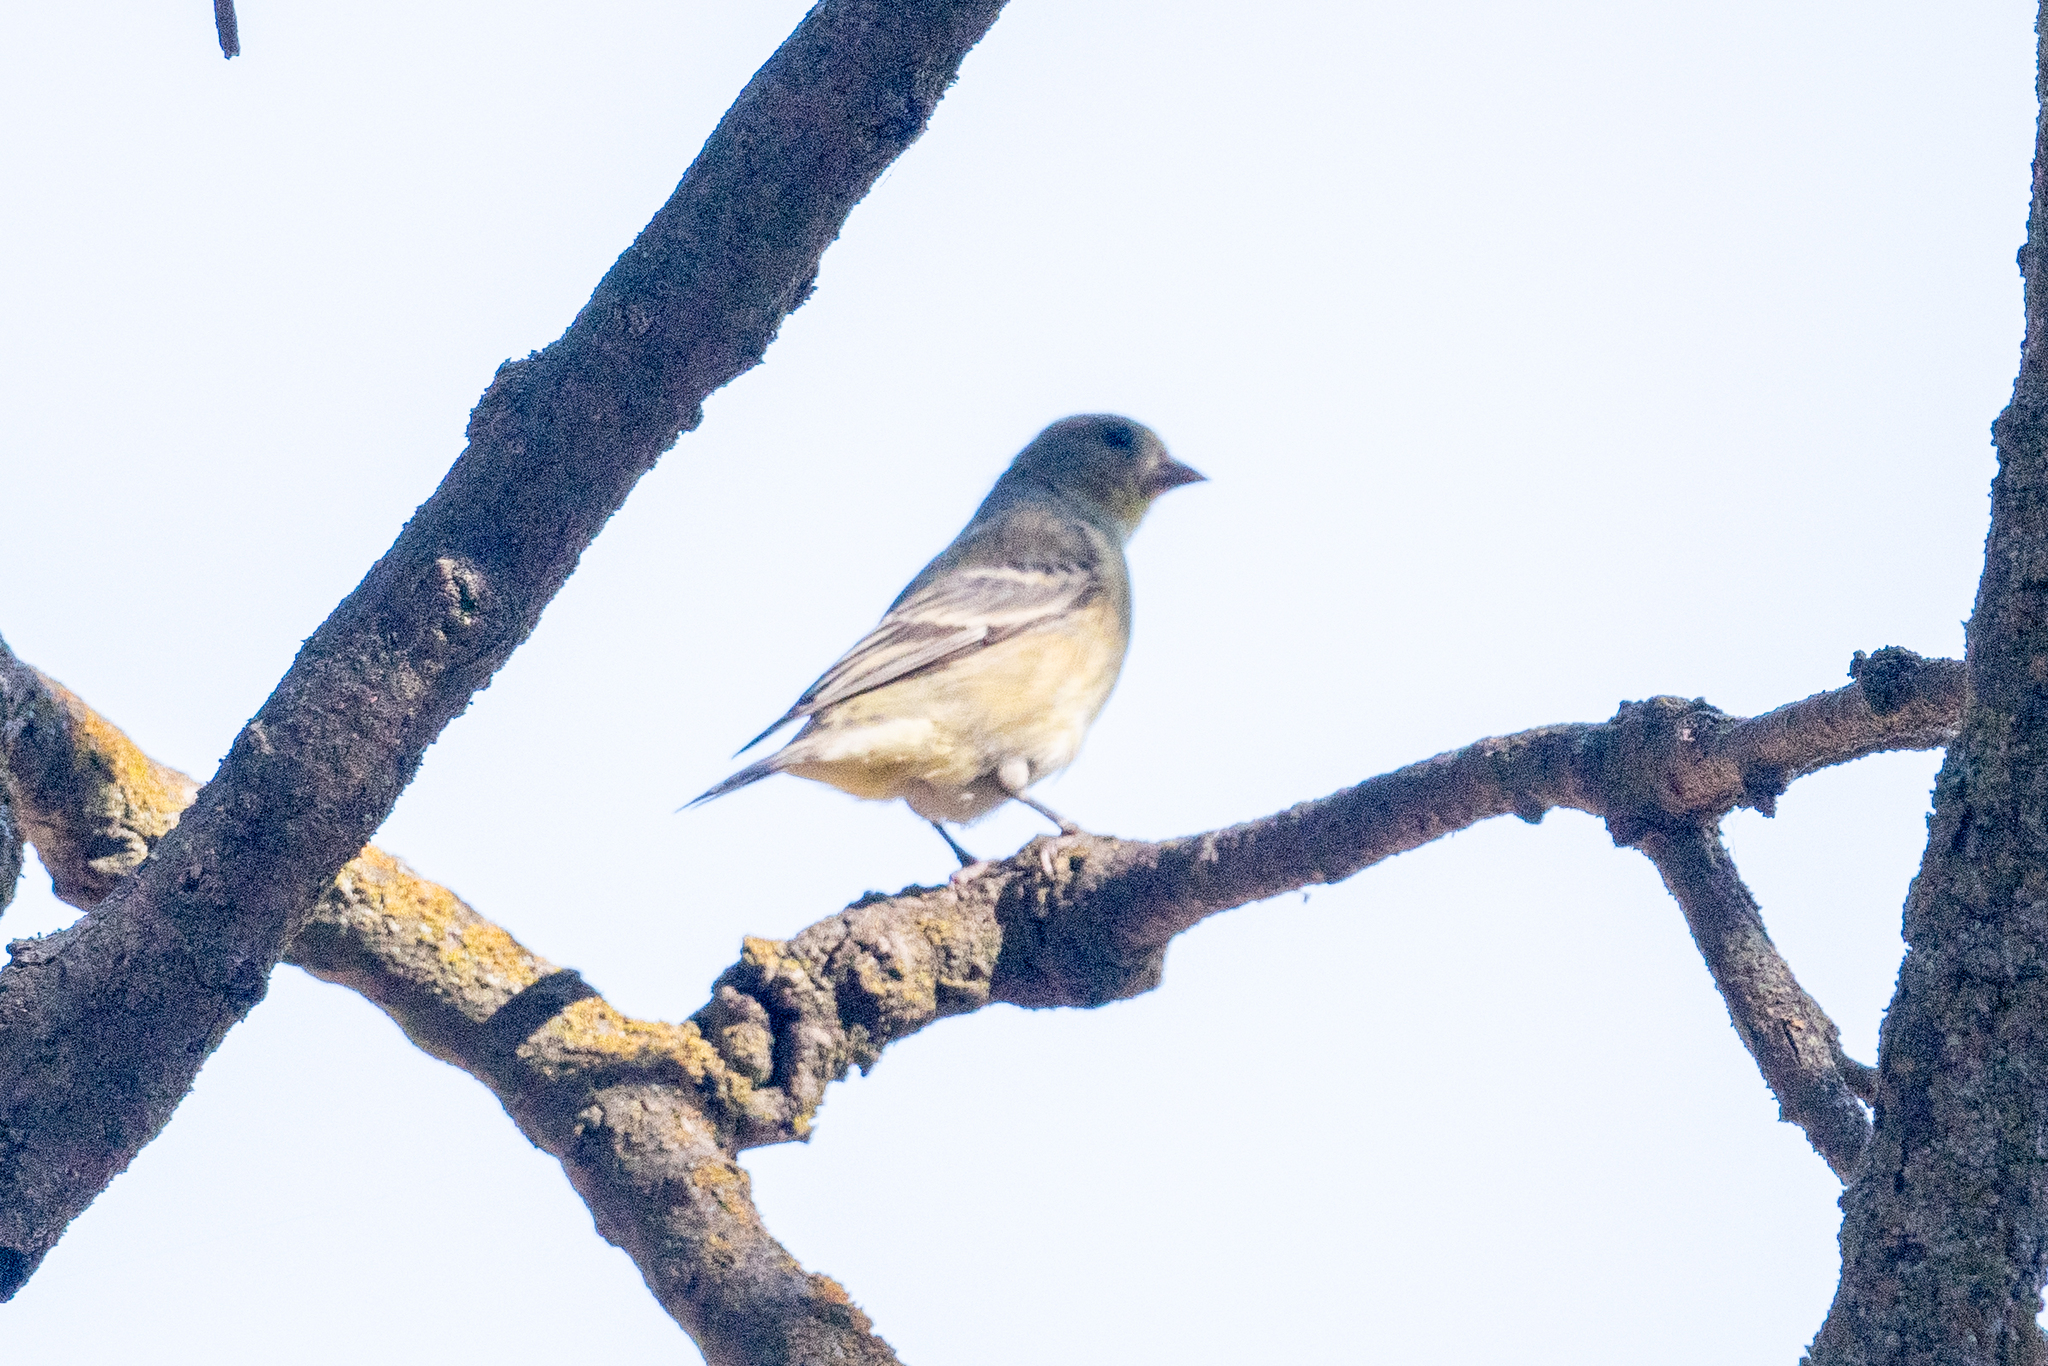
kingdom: Animalia
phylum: Chordata
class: Aves
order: Passeriformes
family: Fringillidae
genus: Spinus
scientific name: Spinus psaltria
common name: Lesser goldfinch
